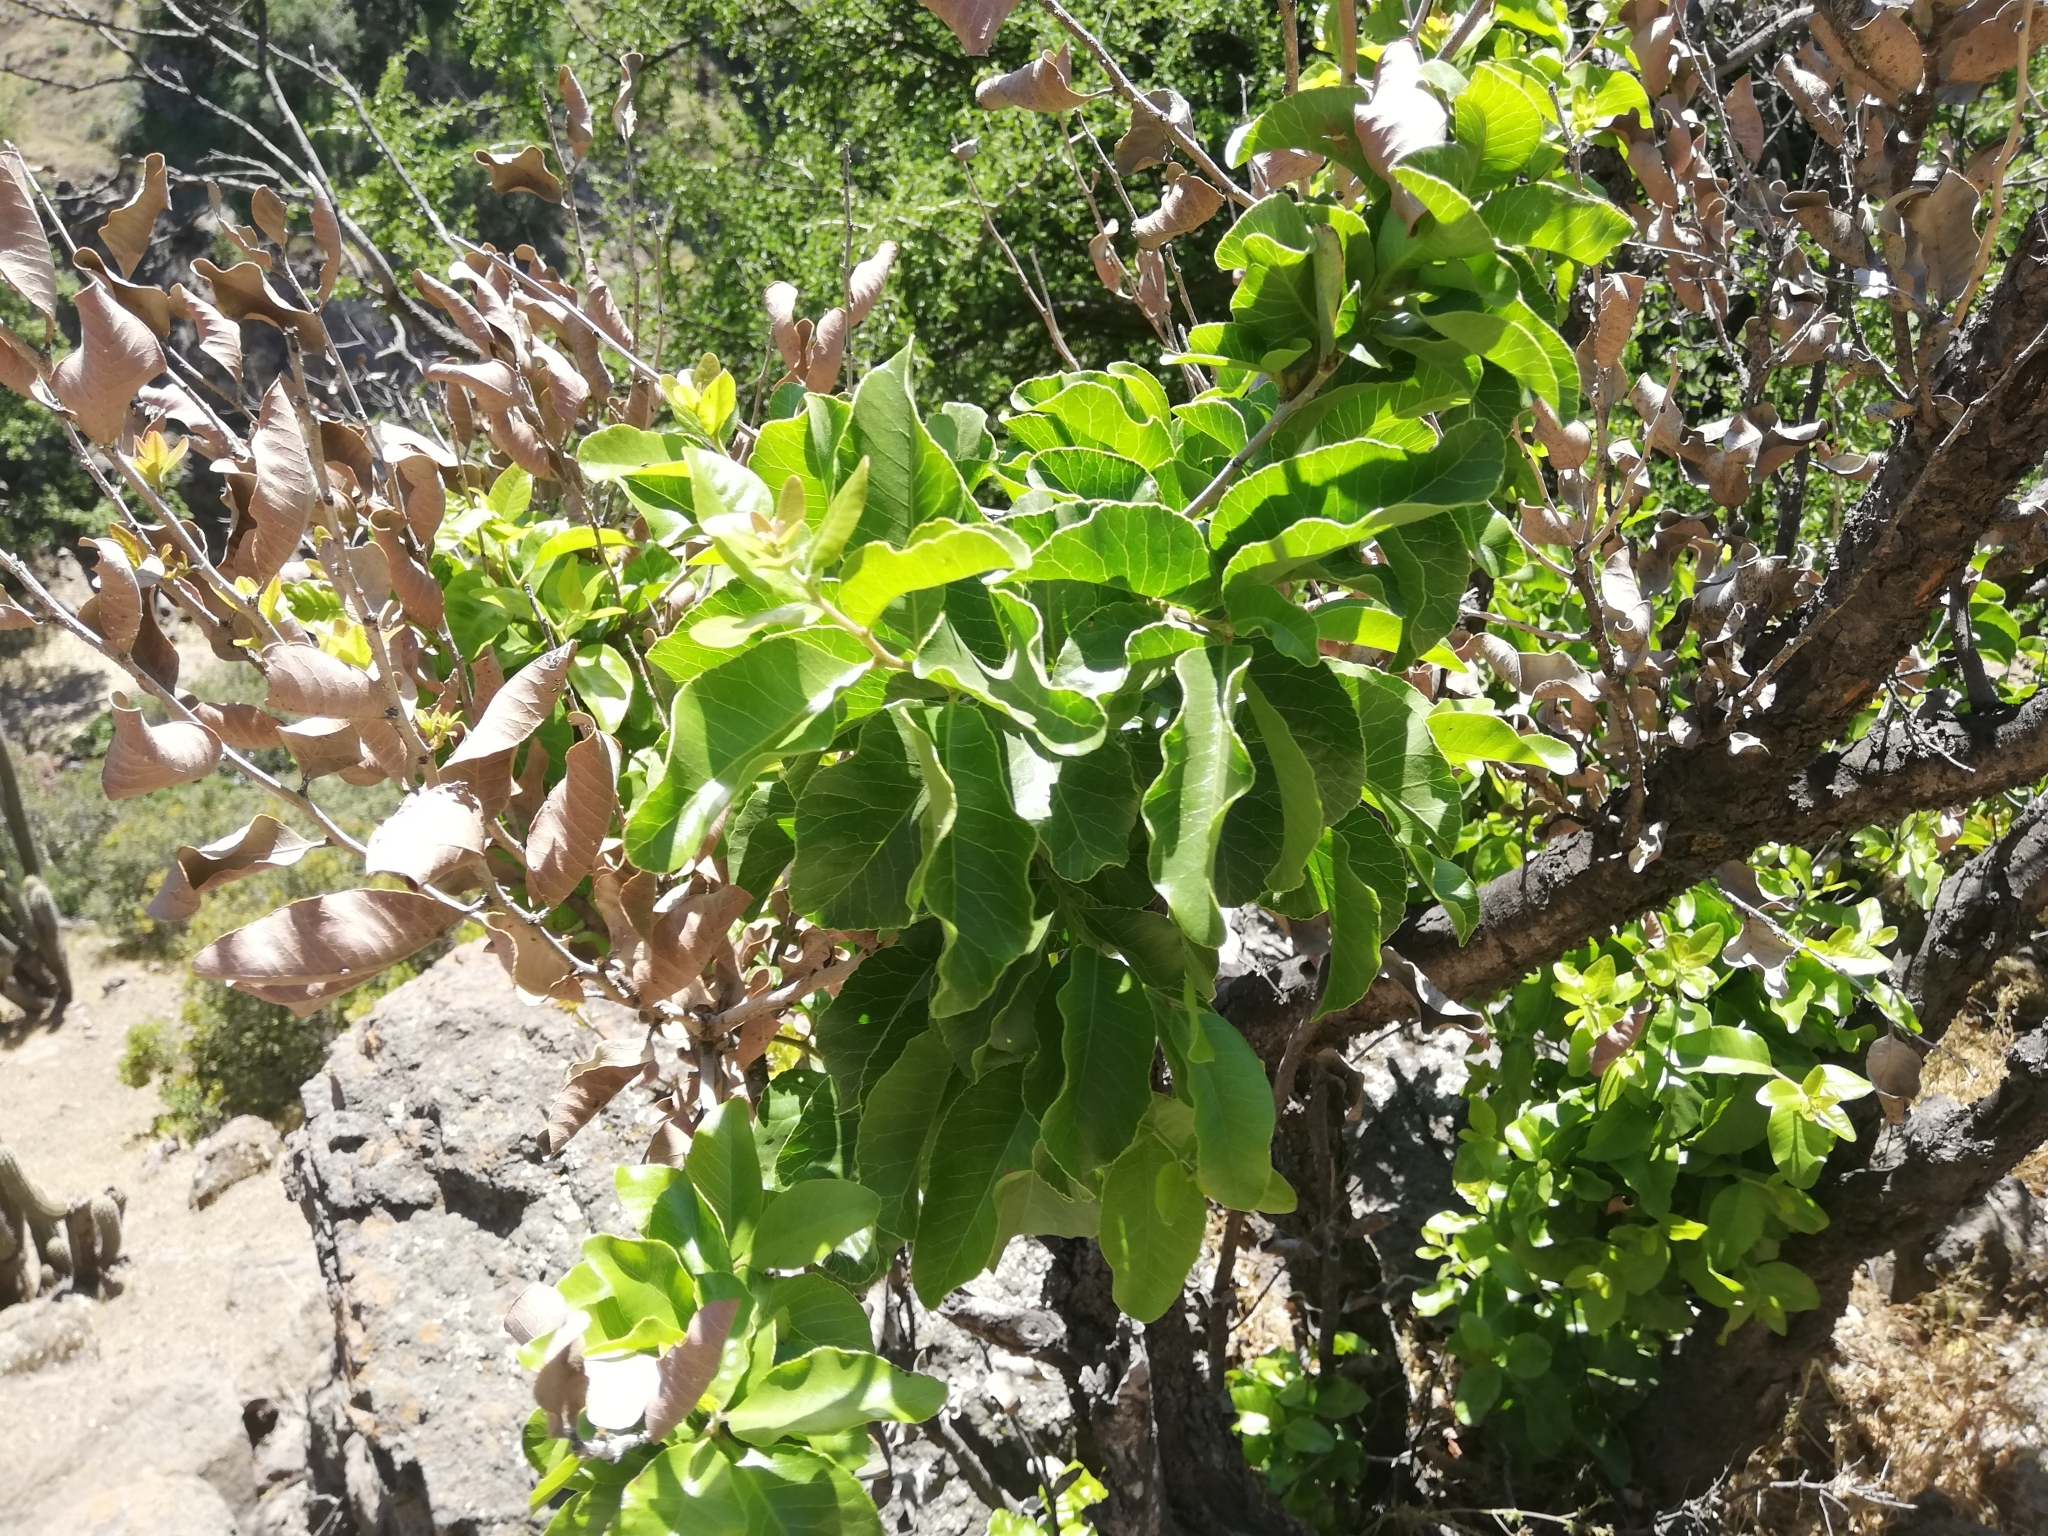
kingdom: Plantae
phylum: Tracheophyta
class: Magnoliopsida
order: Sapindales
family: Anacardiaceae
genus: Lithraea
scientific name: Lithraea caustica
